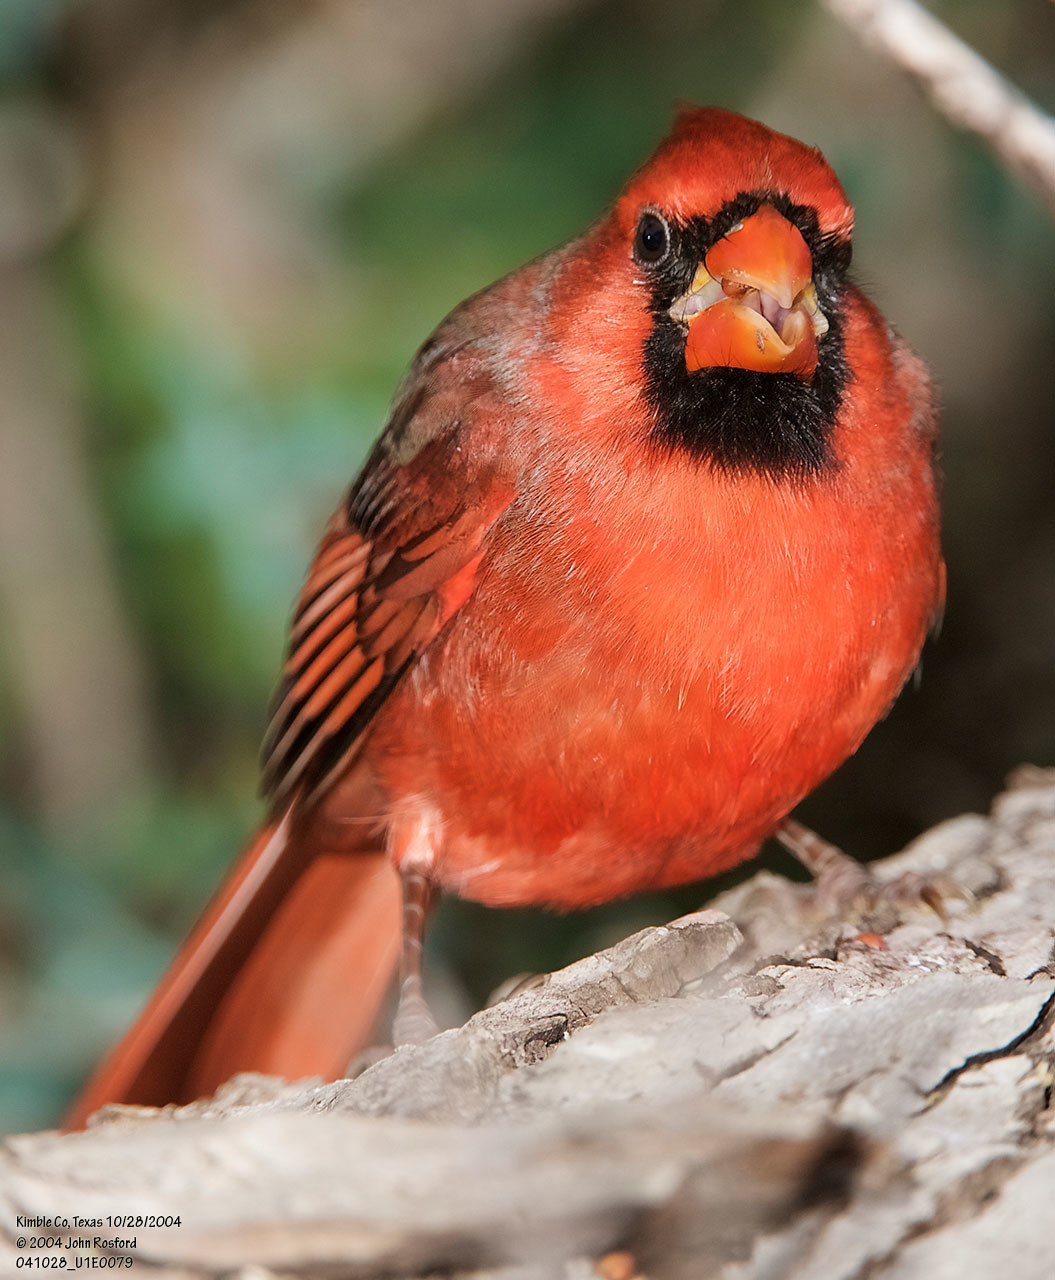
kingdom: Animalia
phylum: Chordata
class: Aves
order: Passeriformes
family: Cardinalidae
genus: Cardinalis
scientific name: Cardinalis cardinalis
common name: Northern cardinal
